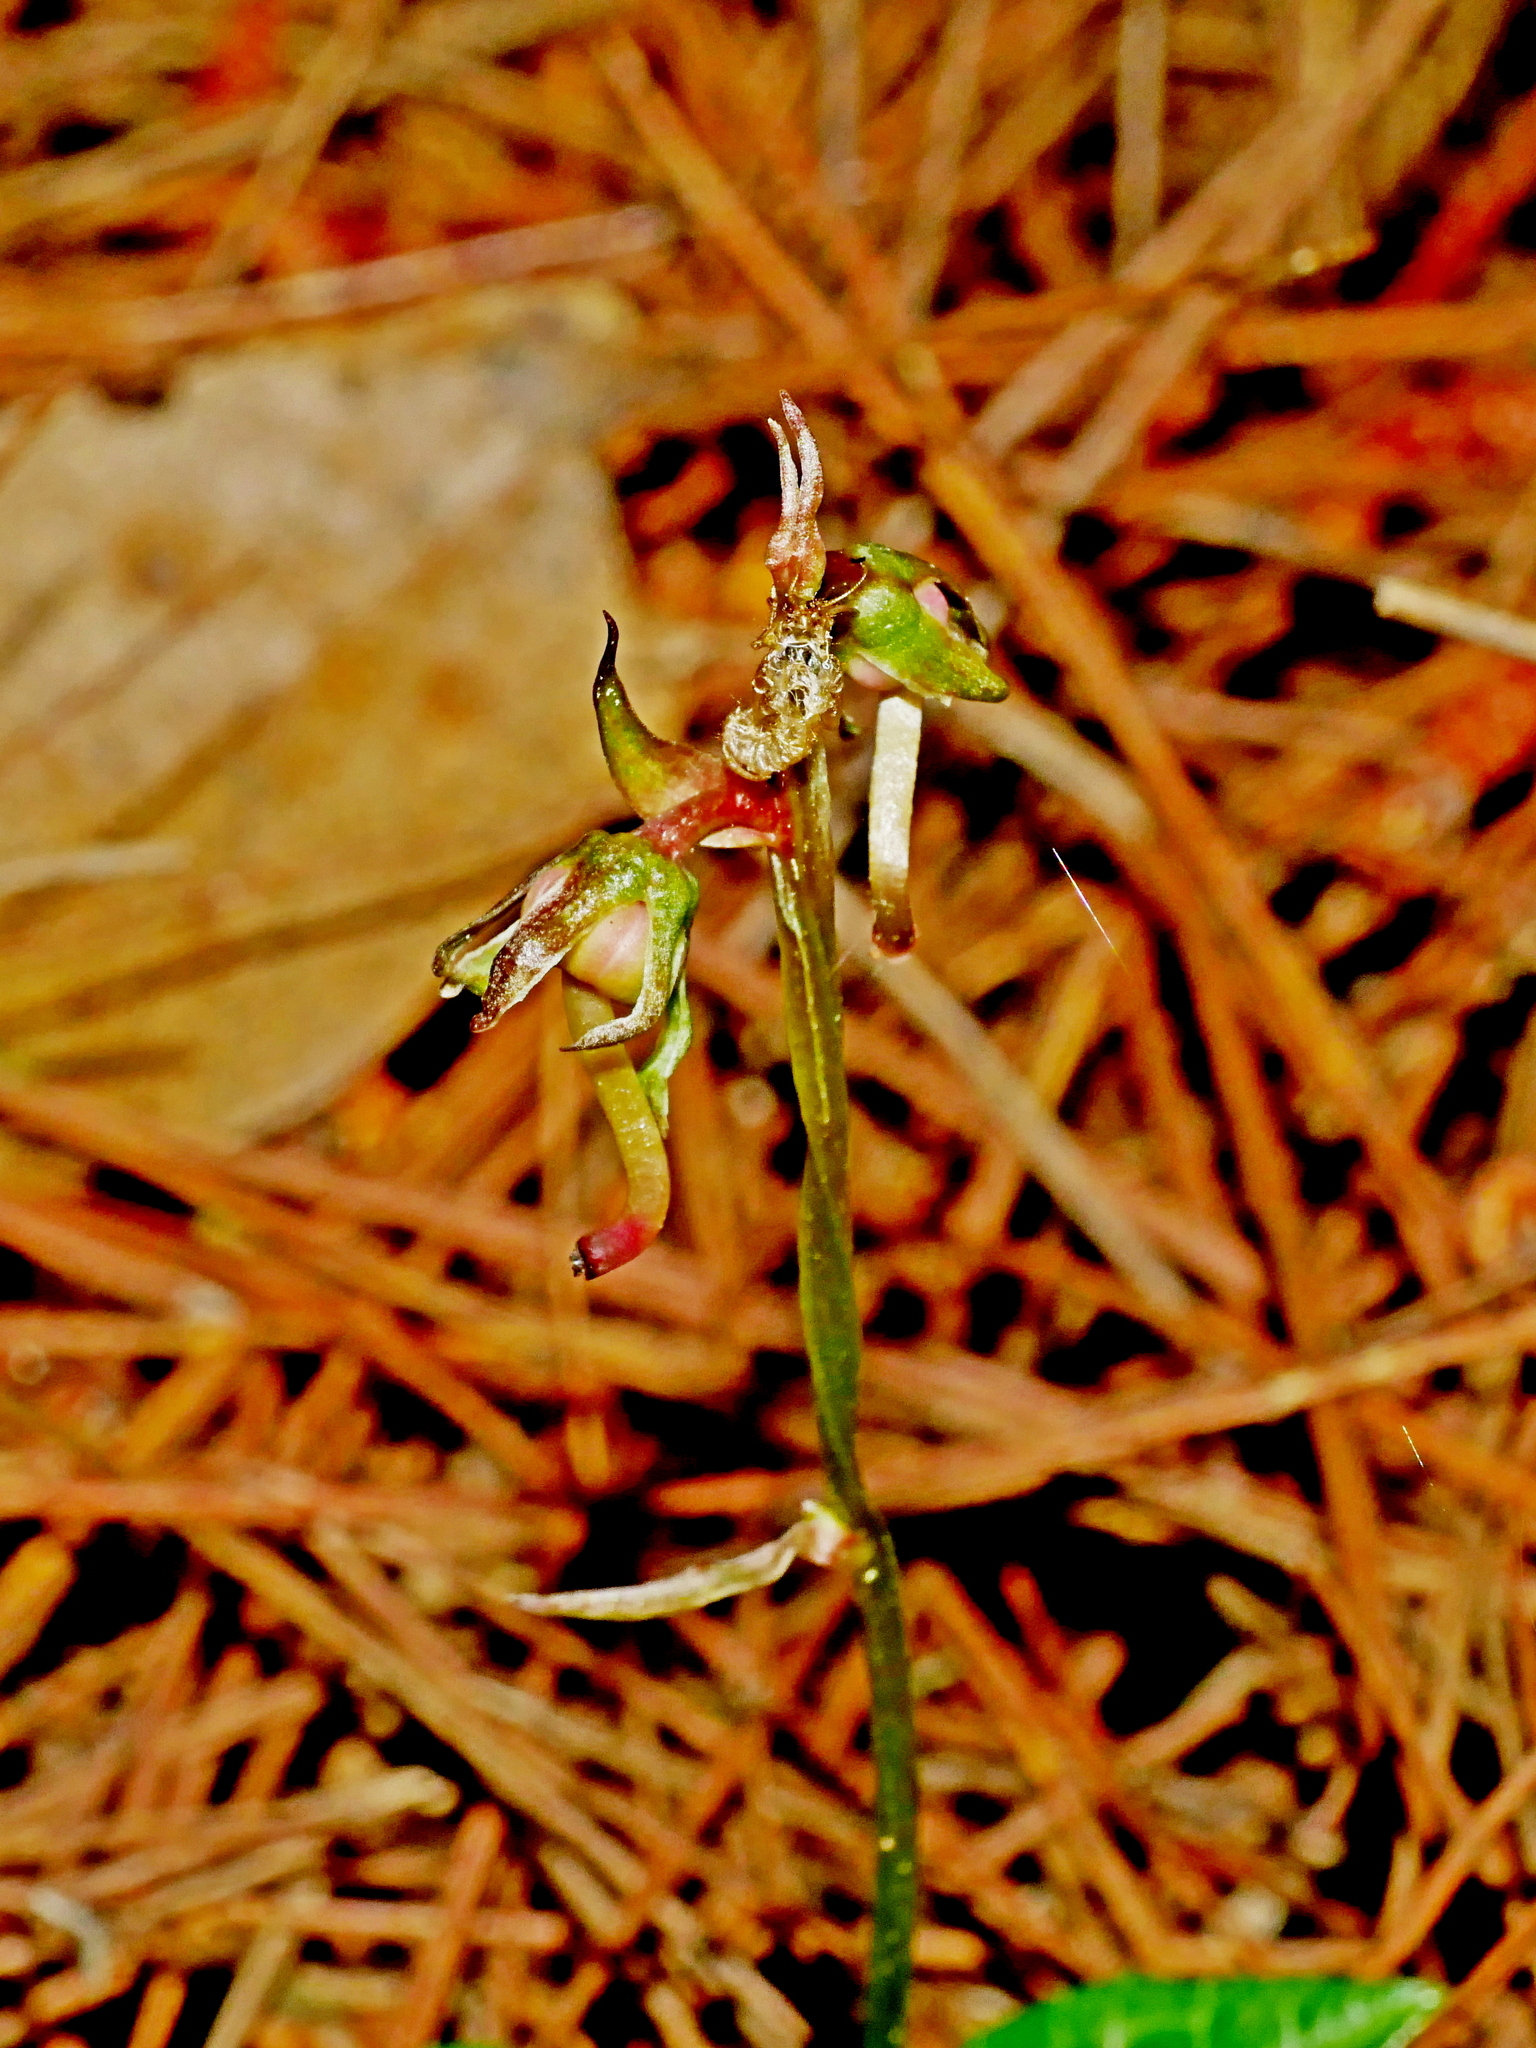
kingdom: Plantae
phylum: Tracheophyta
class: Magnoliopsida
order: Ericales
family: Ericaceae
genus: Pyrola
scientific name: Pyrola alboreticulata
